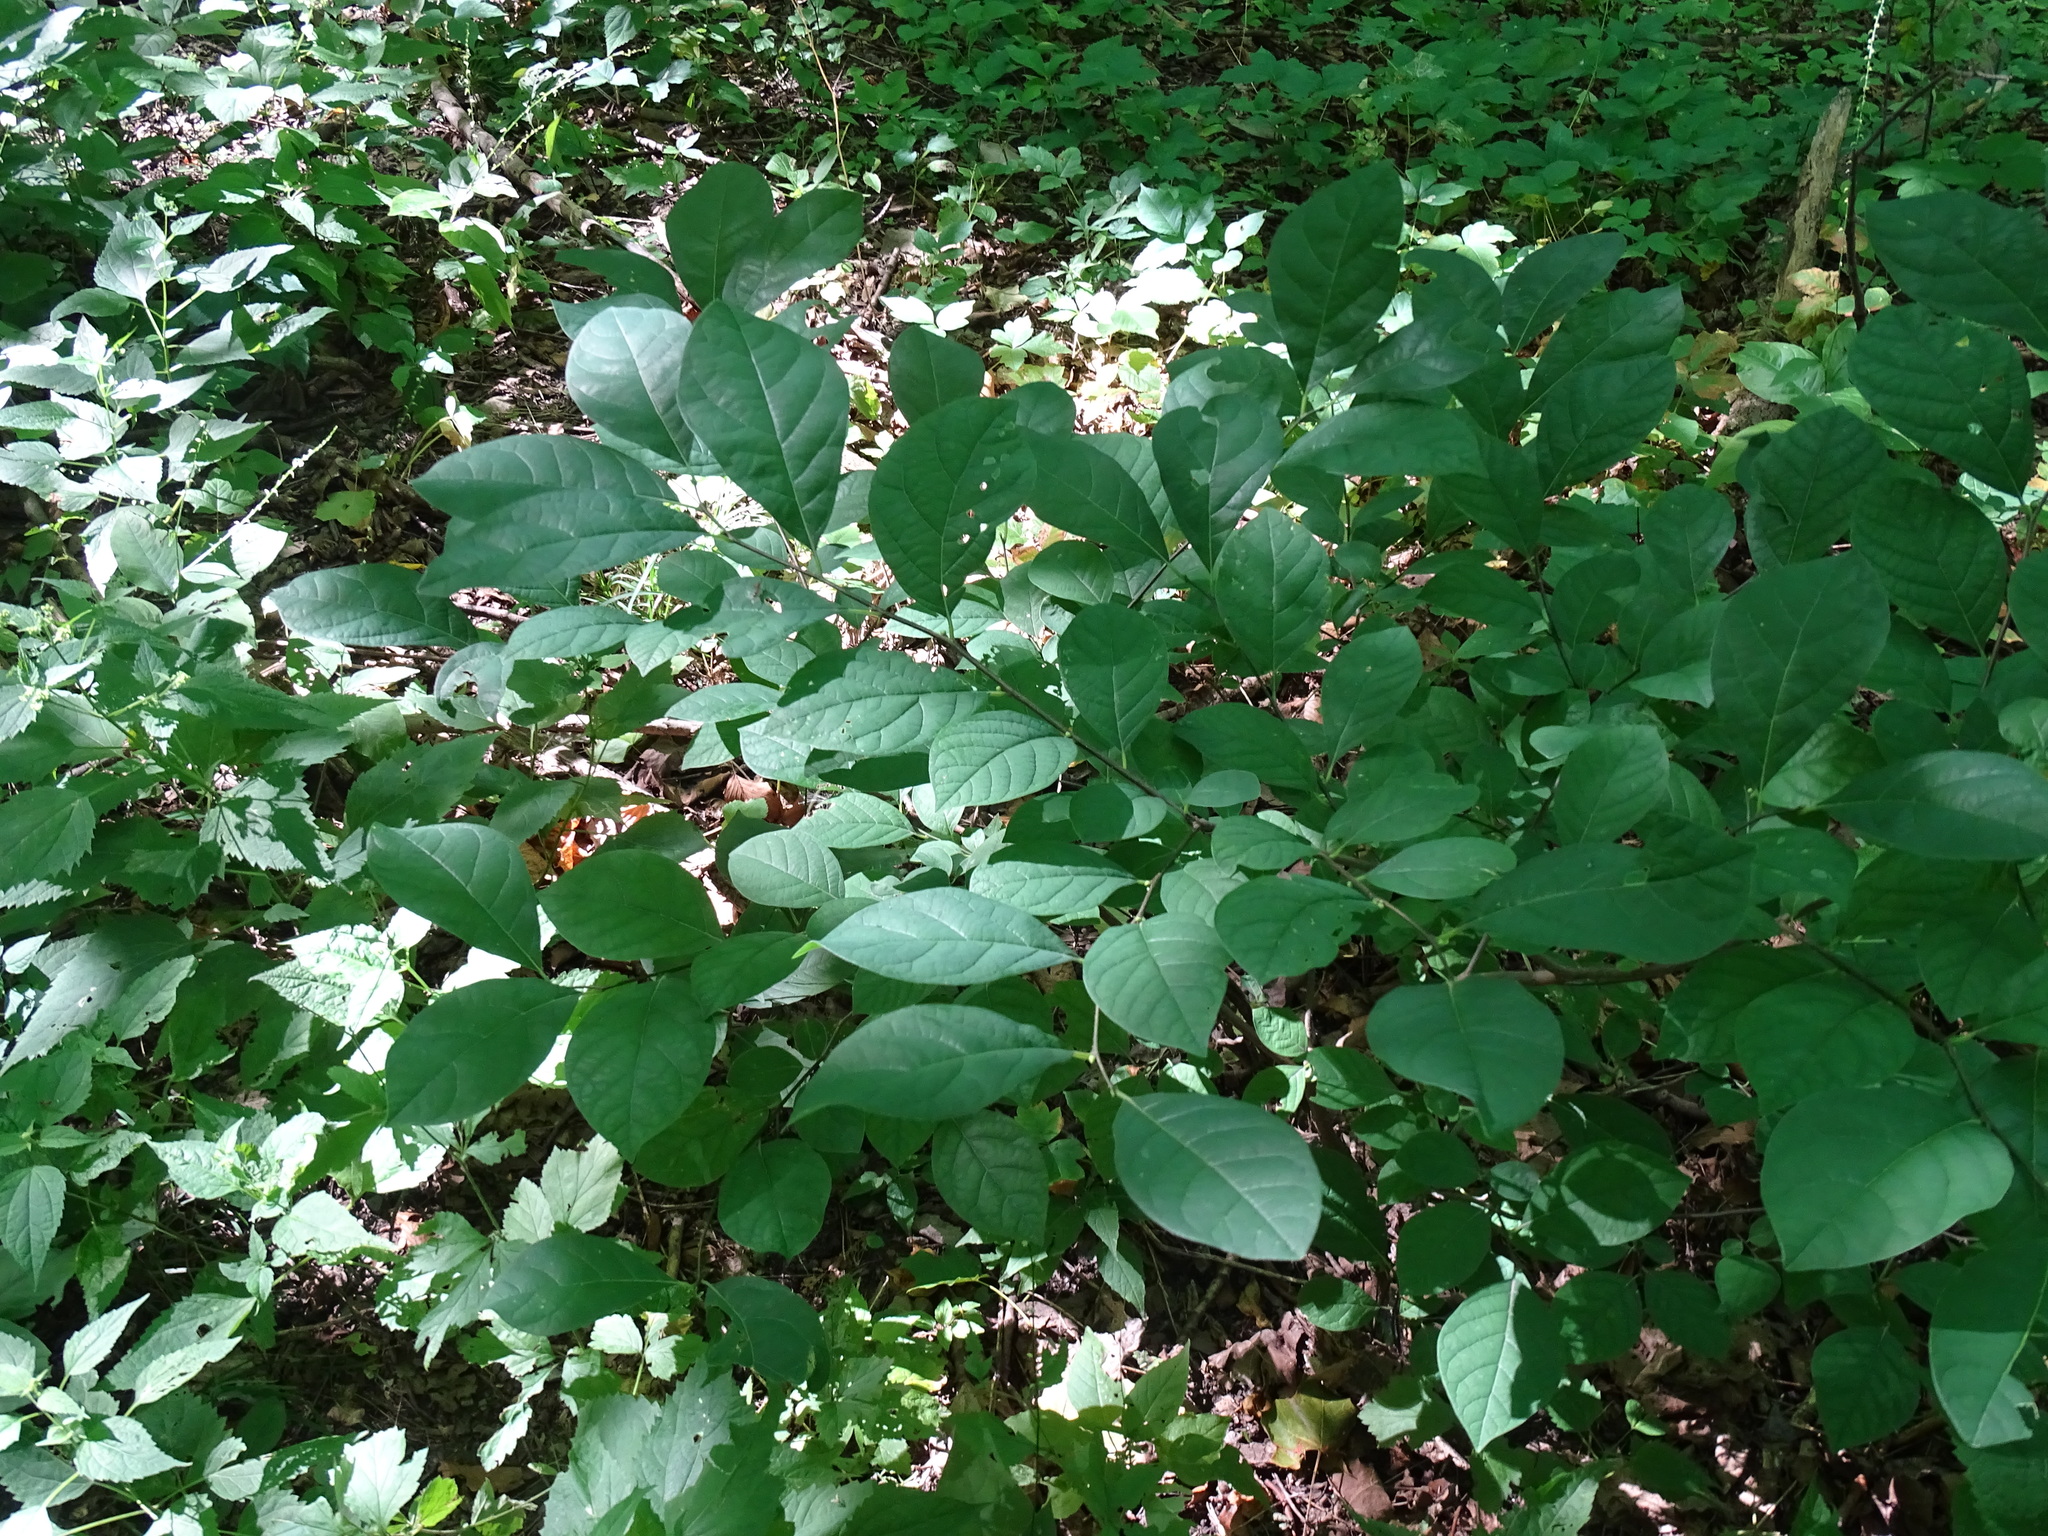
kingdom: Plantae
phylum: Tracheophyta
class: Magnoliopsida
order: Laurales
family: Lauraceae
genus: Lindera
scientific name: Lindera benzoin
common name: Spicebush
